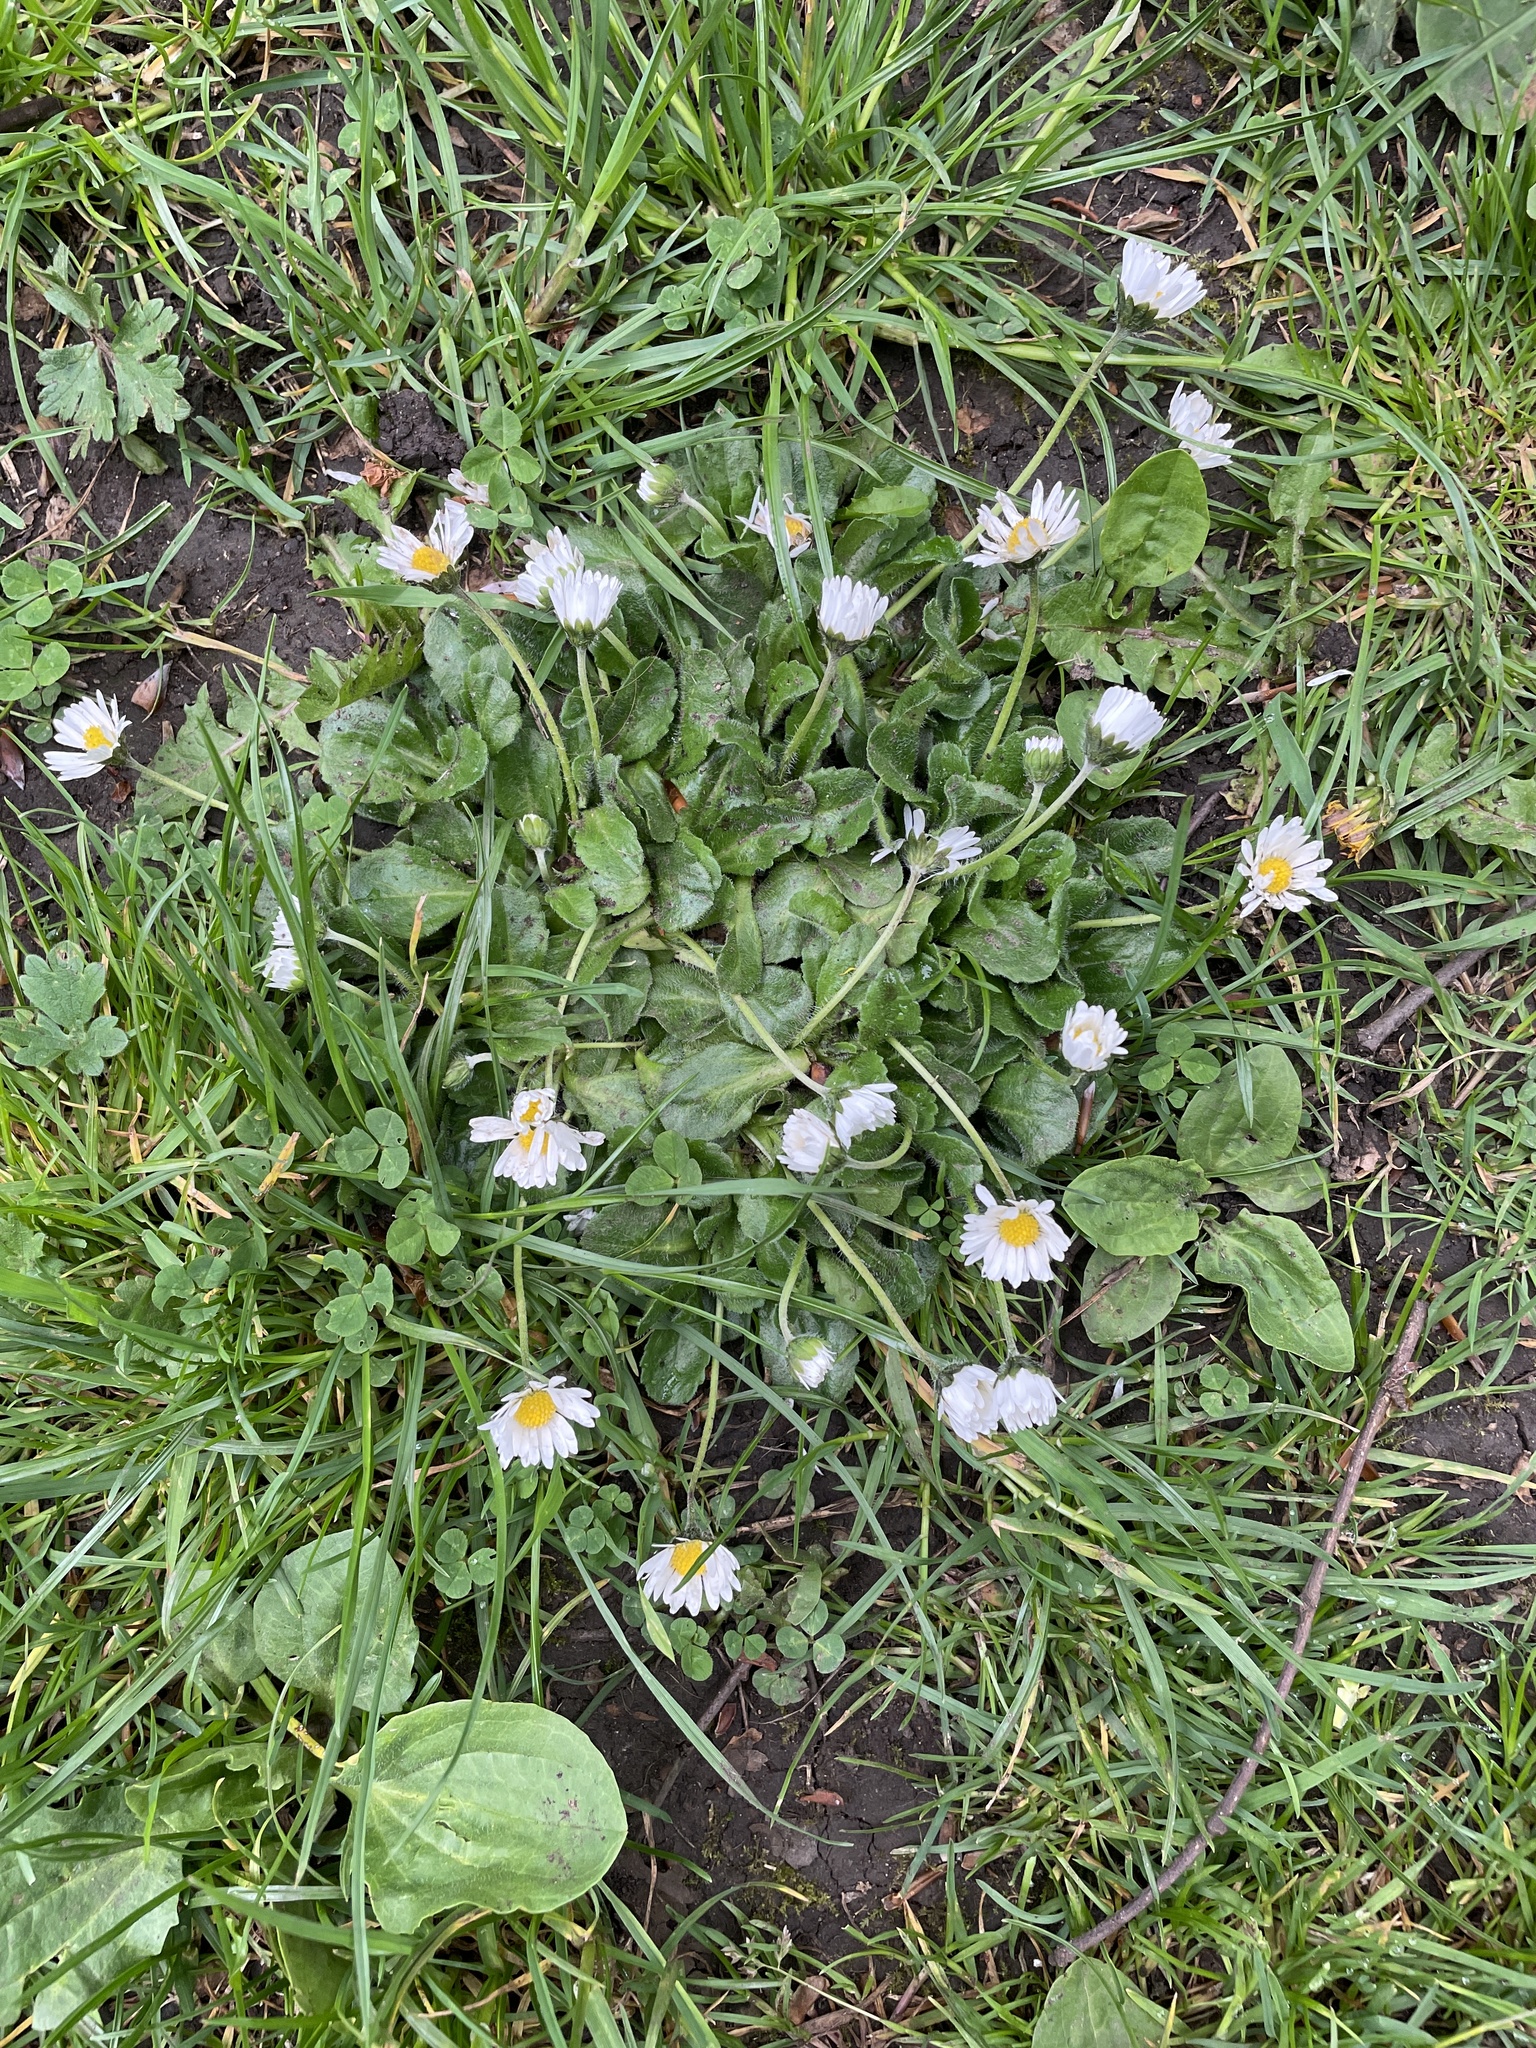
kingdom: Plantae
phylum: Tracheophyta
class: Magnoliopsida
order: Asterales
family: Asteraceae
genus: Bellis
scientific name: Bellis perennis
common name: Lawndaisy
